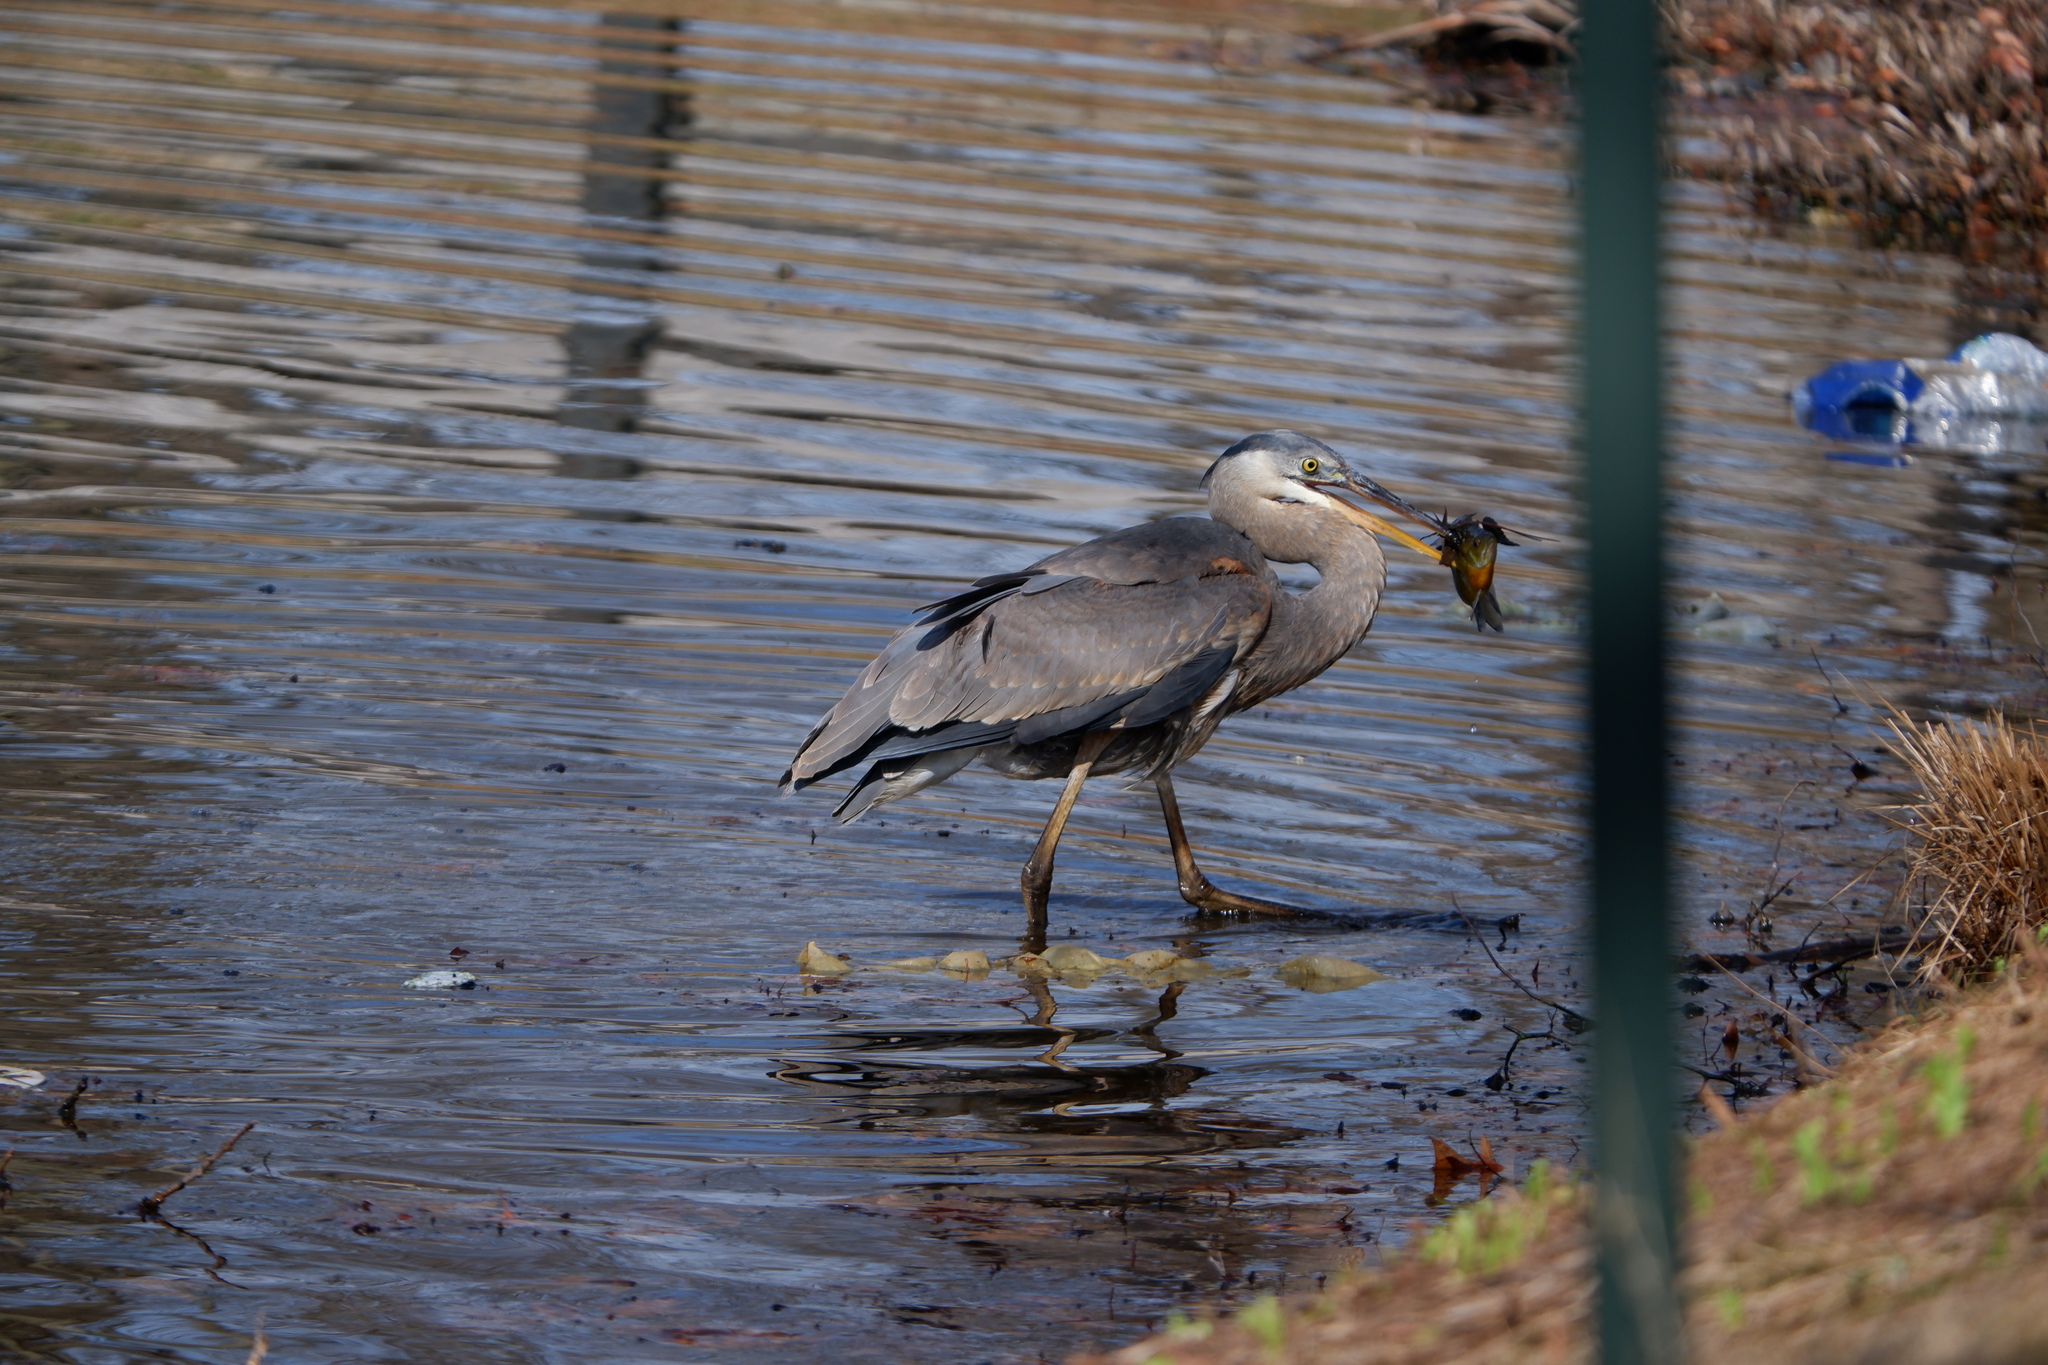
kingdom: Animalia
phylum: Chordata
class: Aves
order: Pelecaniformes
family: Ardeidae
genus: Ardea
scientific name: Ardea herodias
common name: Great blue heron
